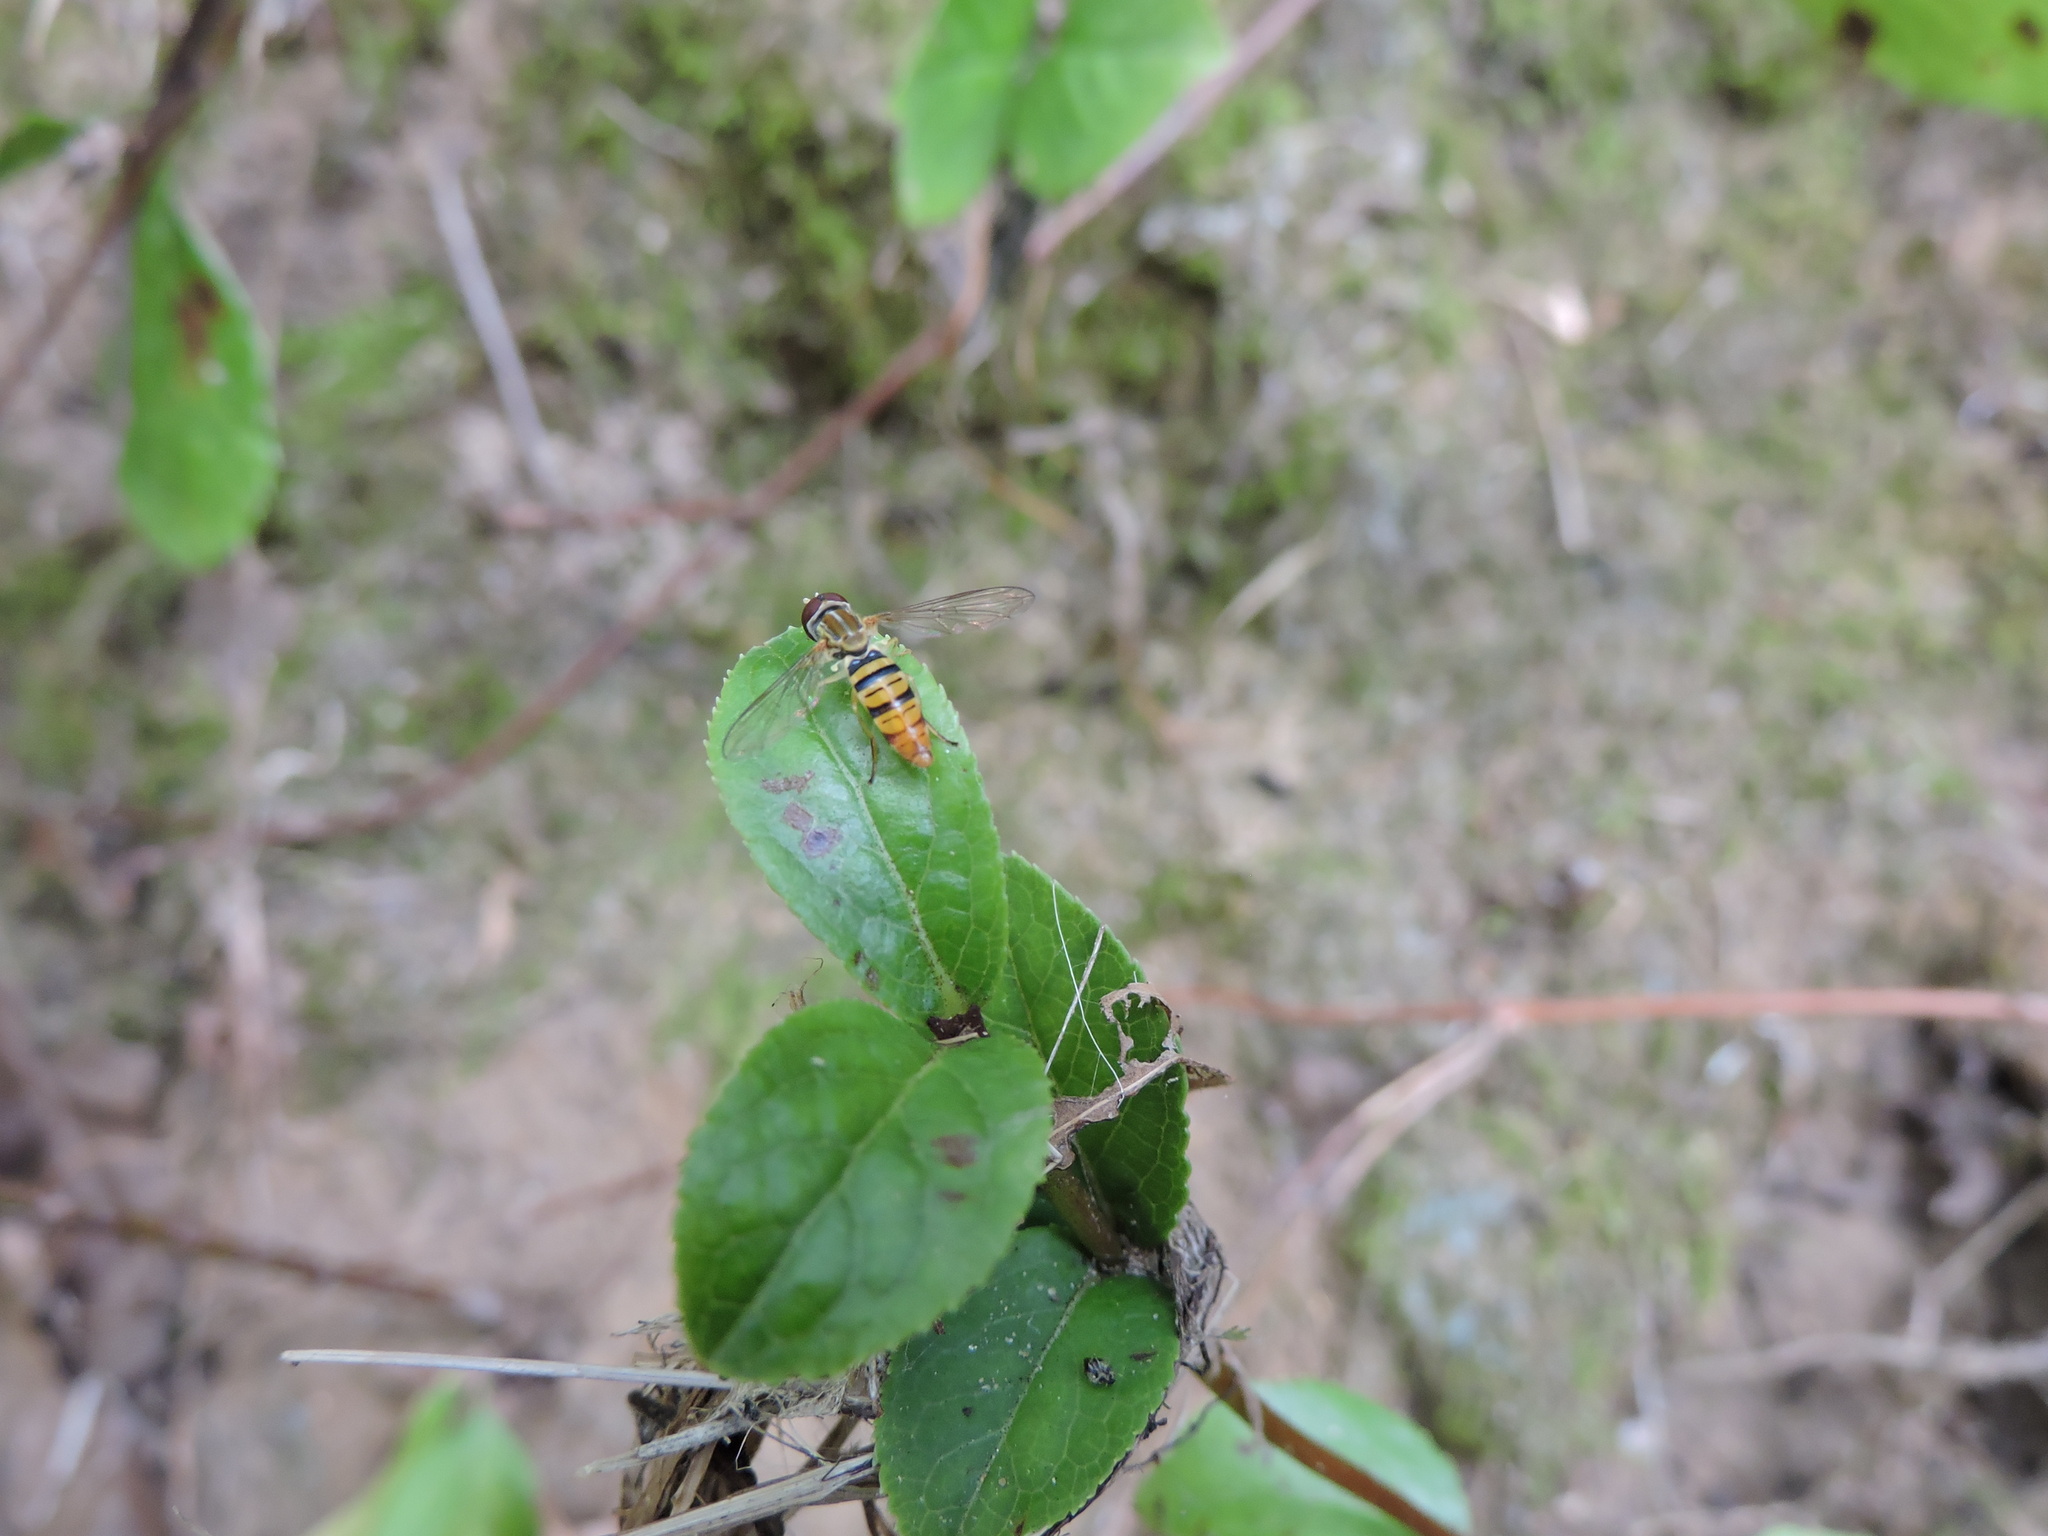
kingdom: Animalia
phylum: Arthropoda
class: Insecta
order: Diptera
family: Syrphidae
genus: Toxomerus
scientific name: Toxomerus politus
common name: Maize calligrapher
